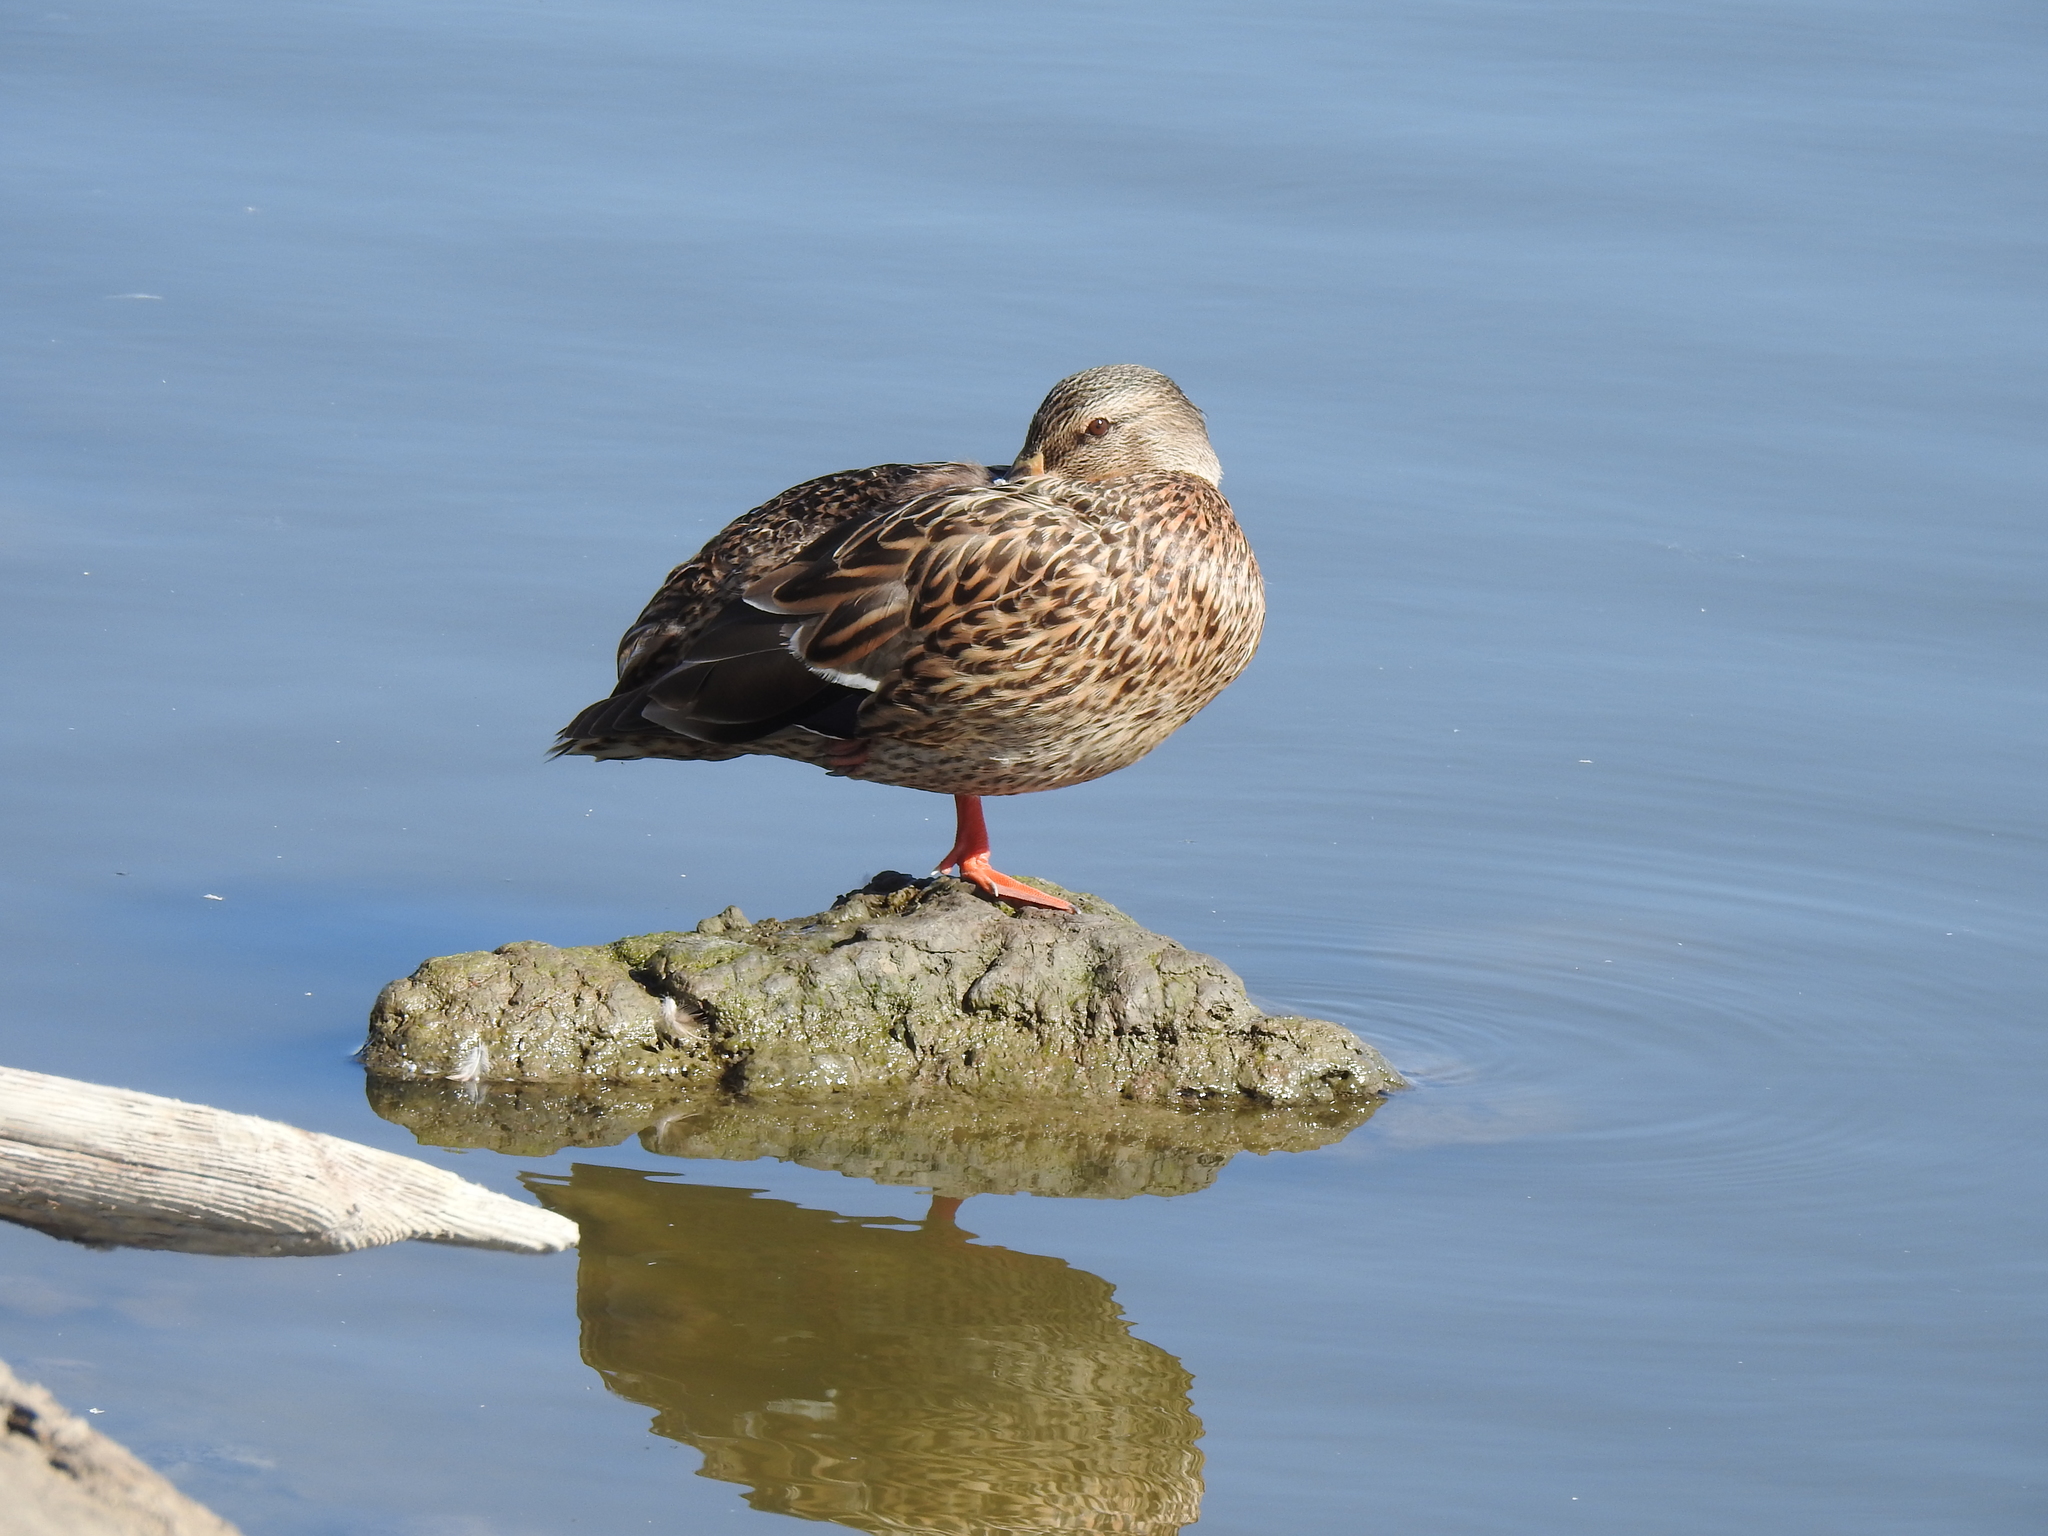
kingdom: Animalia
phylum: Chordata
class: Aves
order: Anseriformes
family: Anatidae
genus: Anas
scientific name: Anas platyrhynchos
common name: Mallard
